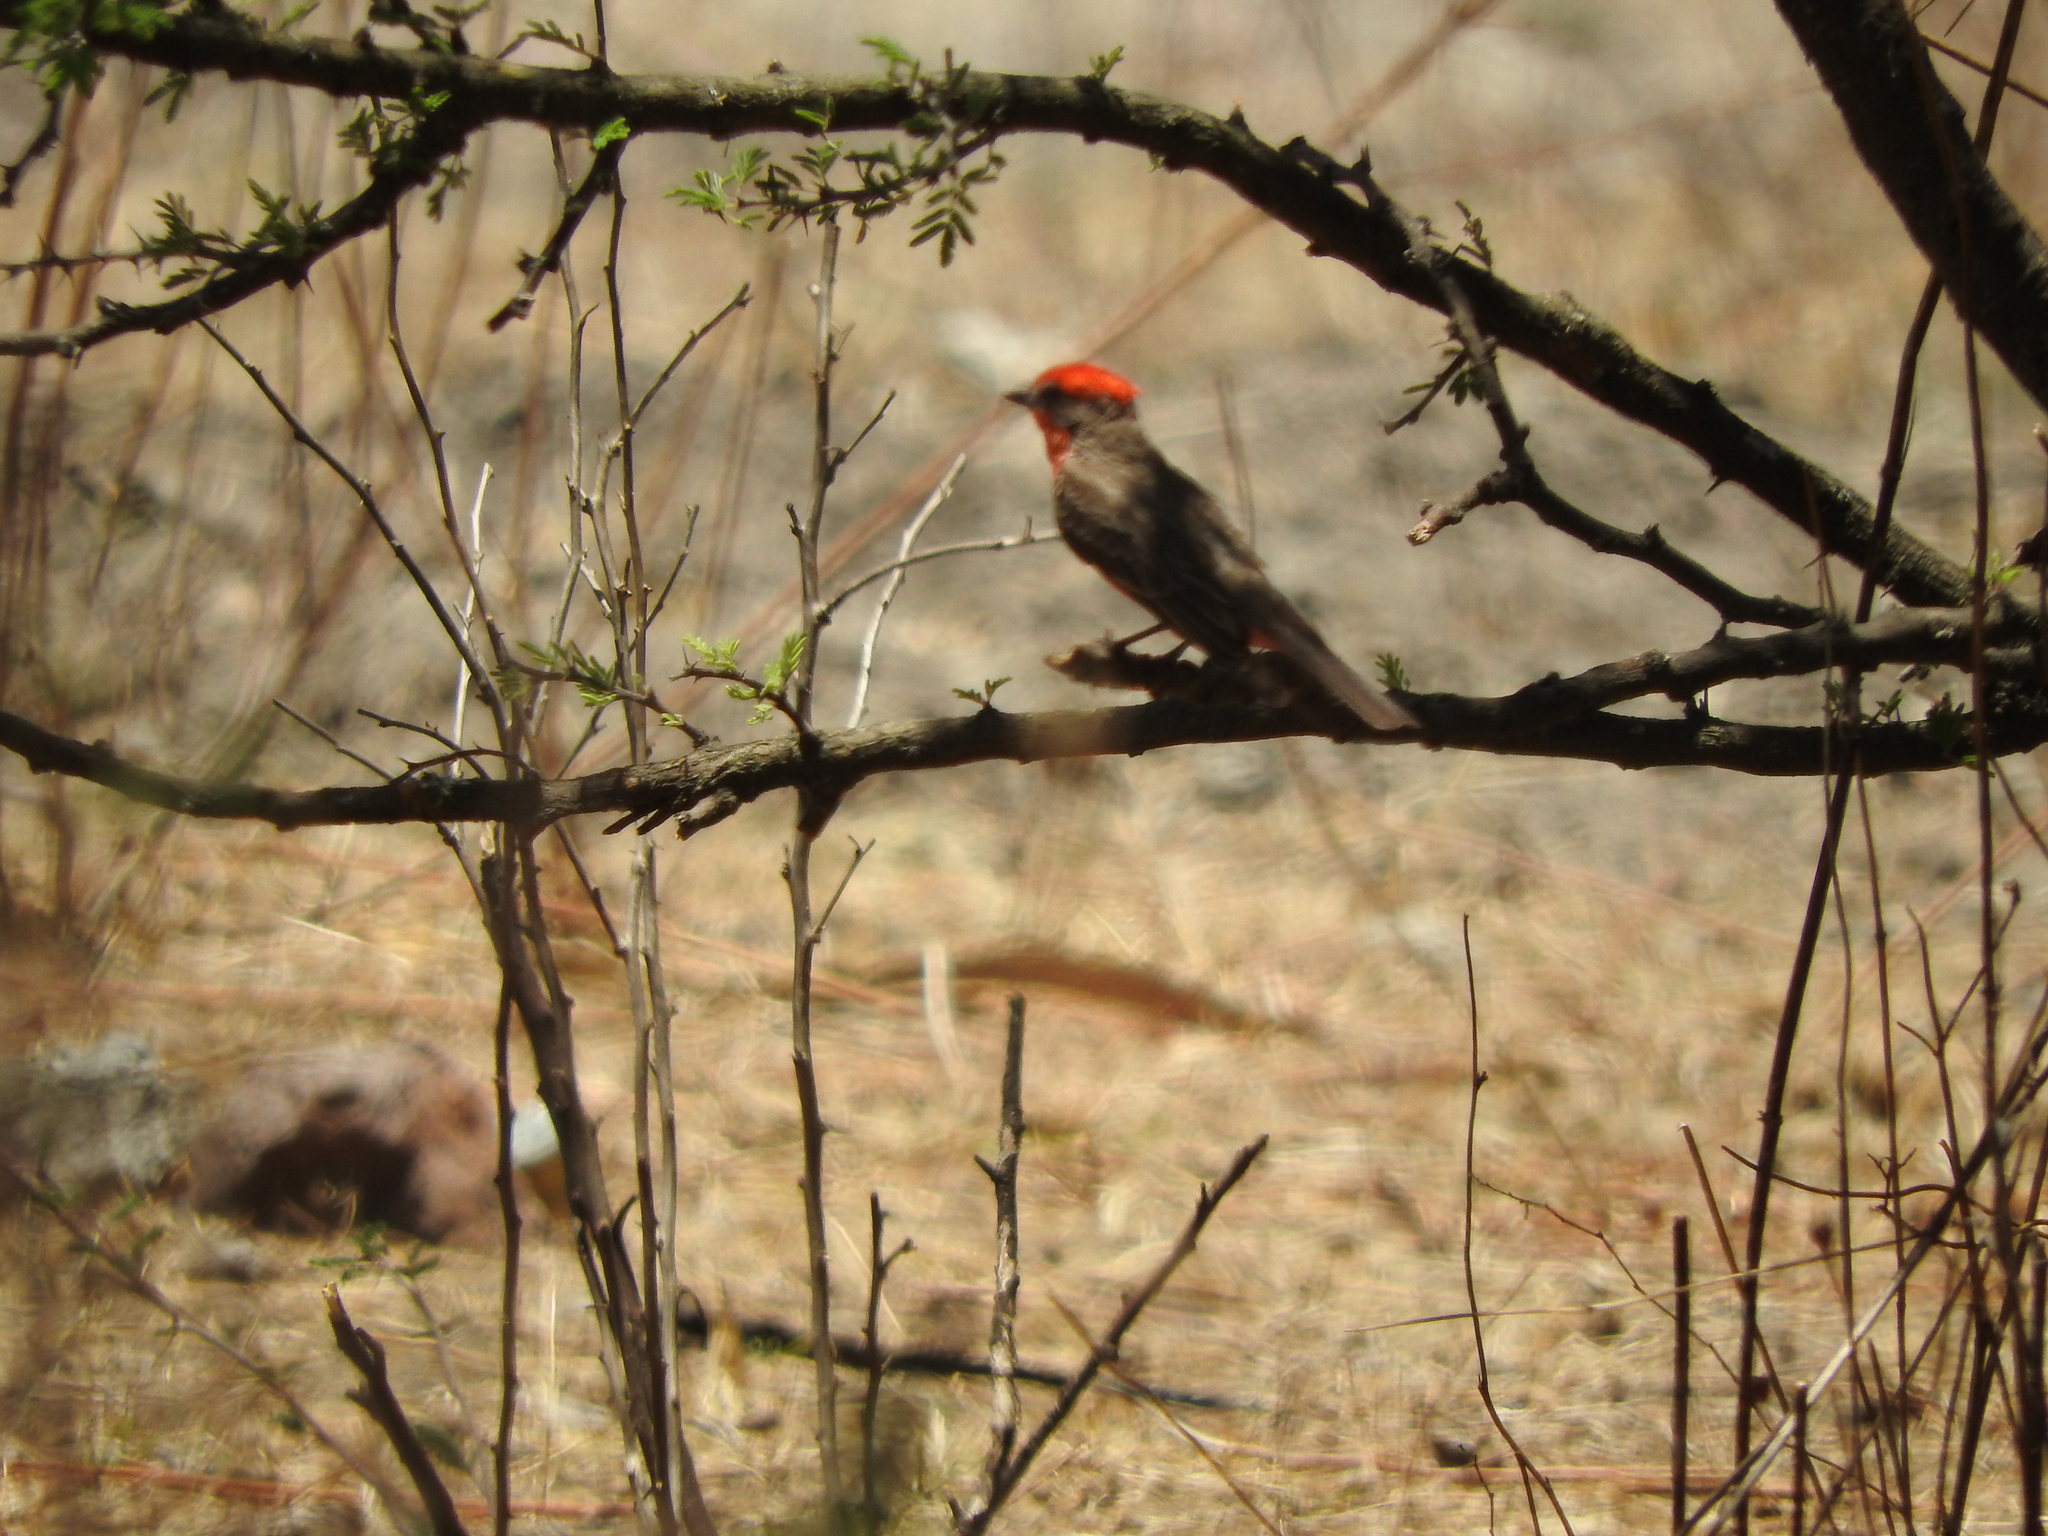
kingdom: Animalia
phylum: Chordata
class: Aves
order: Passeriformes
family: Tyrannidae
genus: Pyrocephalus
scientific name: Pyrocephalus rubinus
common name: Vermilion flycatcher
